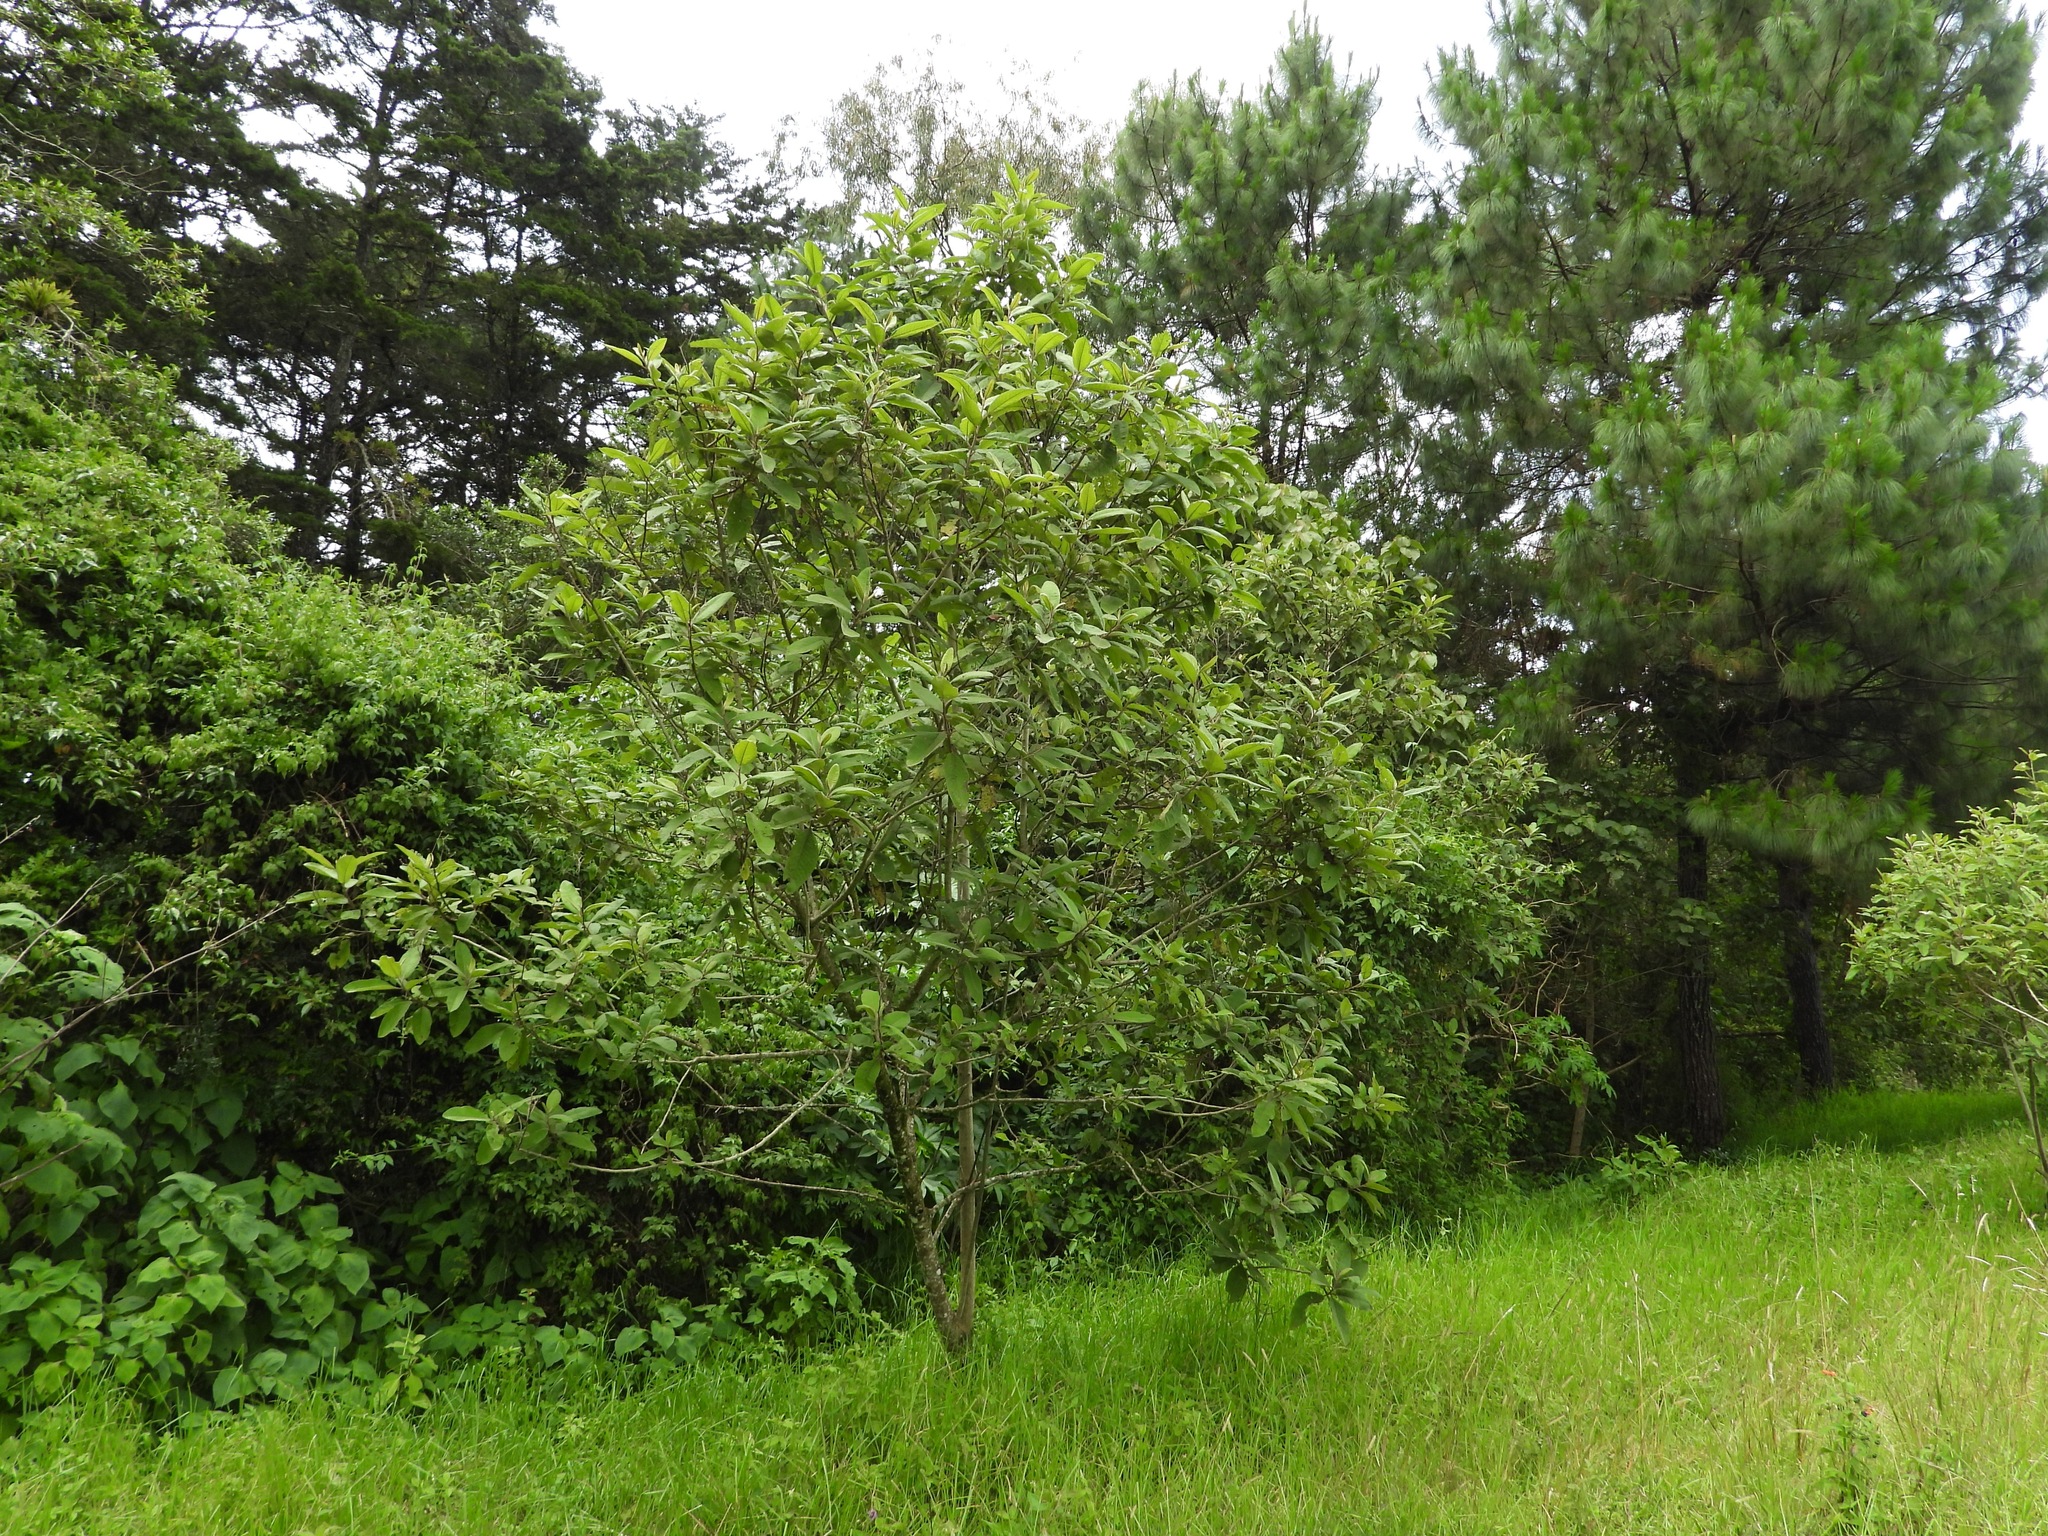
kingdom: Plantae
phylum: Tracheophyta
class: Magnoliopsida
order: Asterales
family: Asteraceae
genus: Vernonanthura
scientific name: Vernonanthura patens
